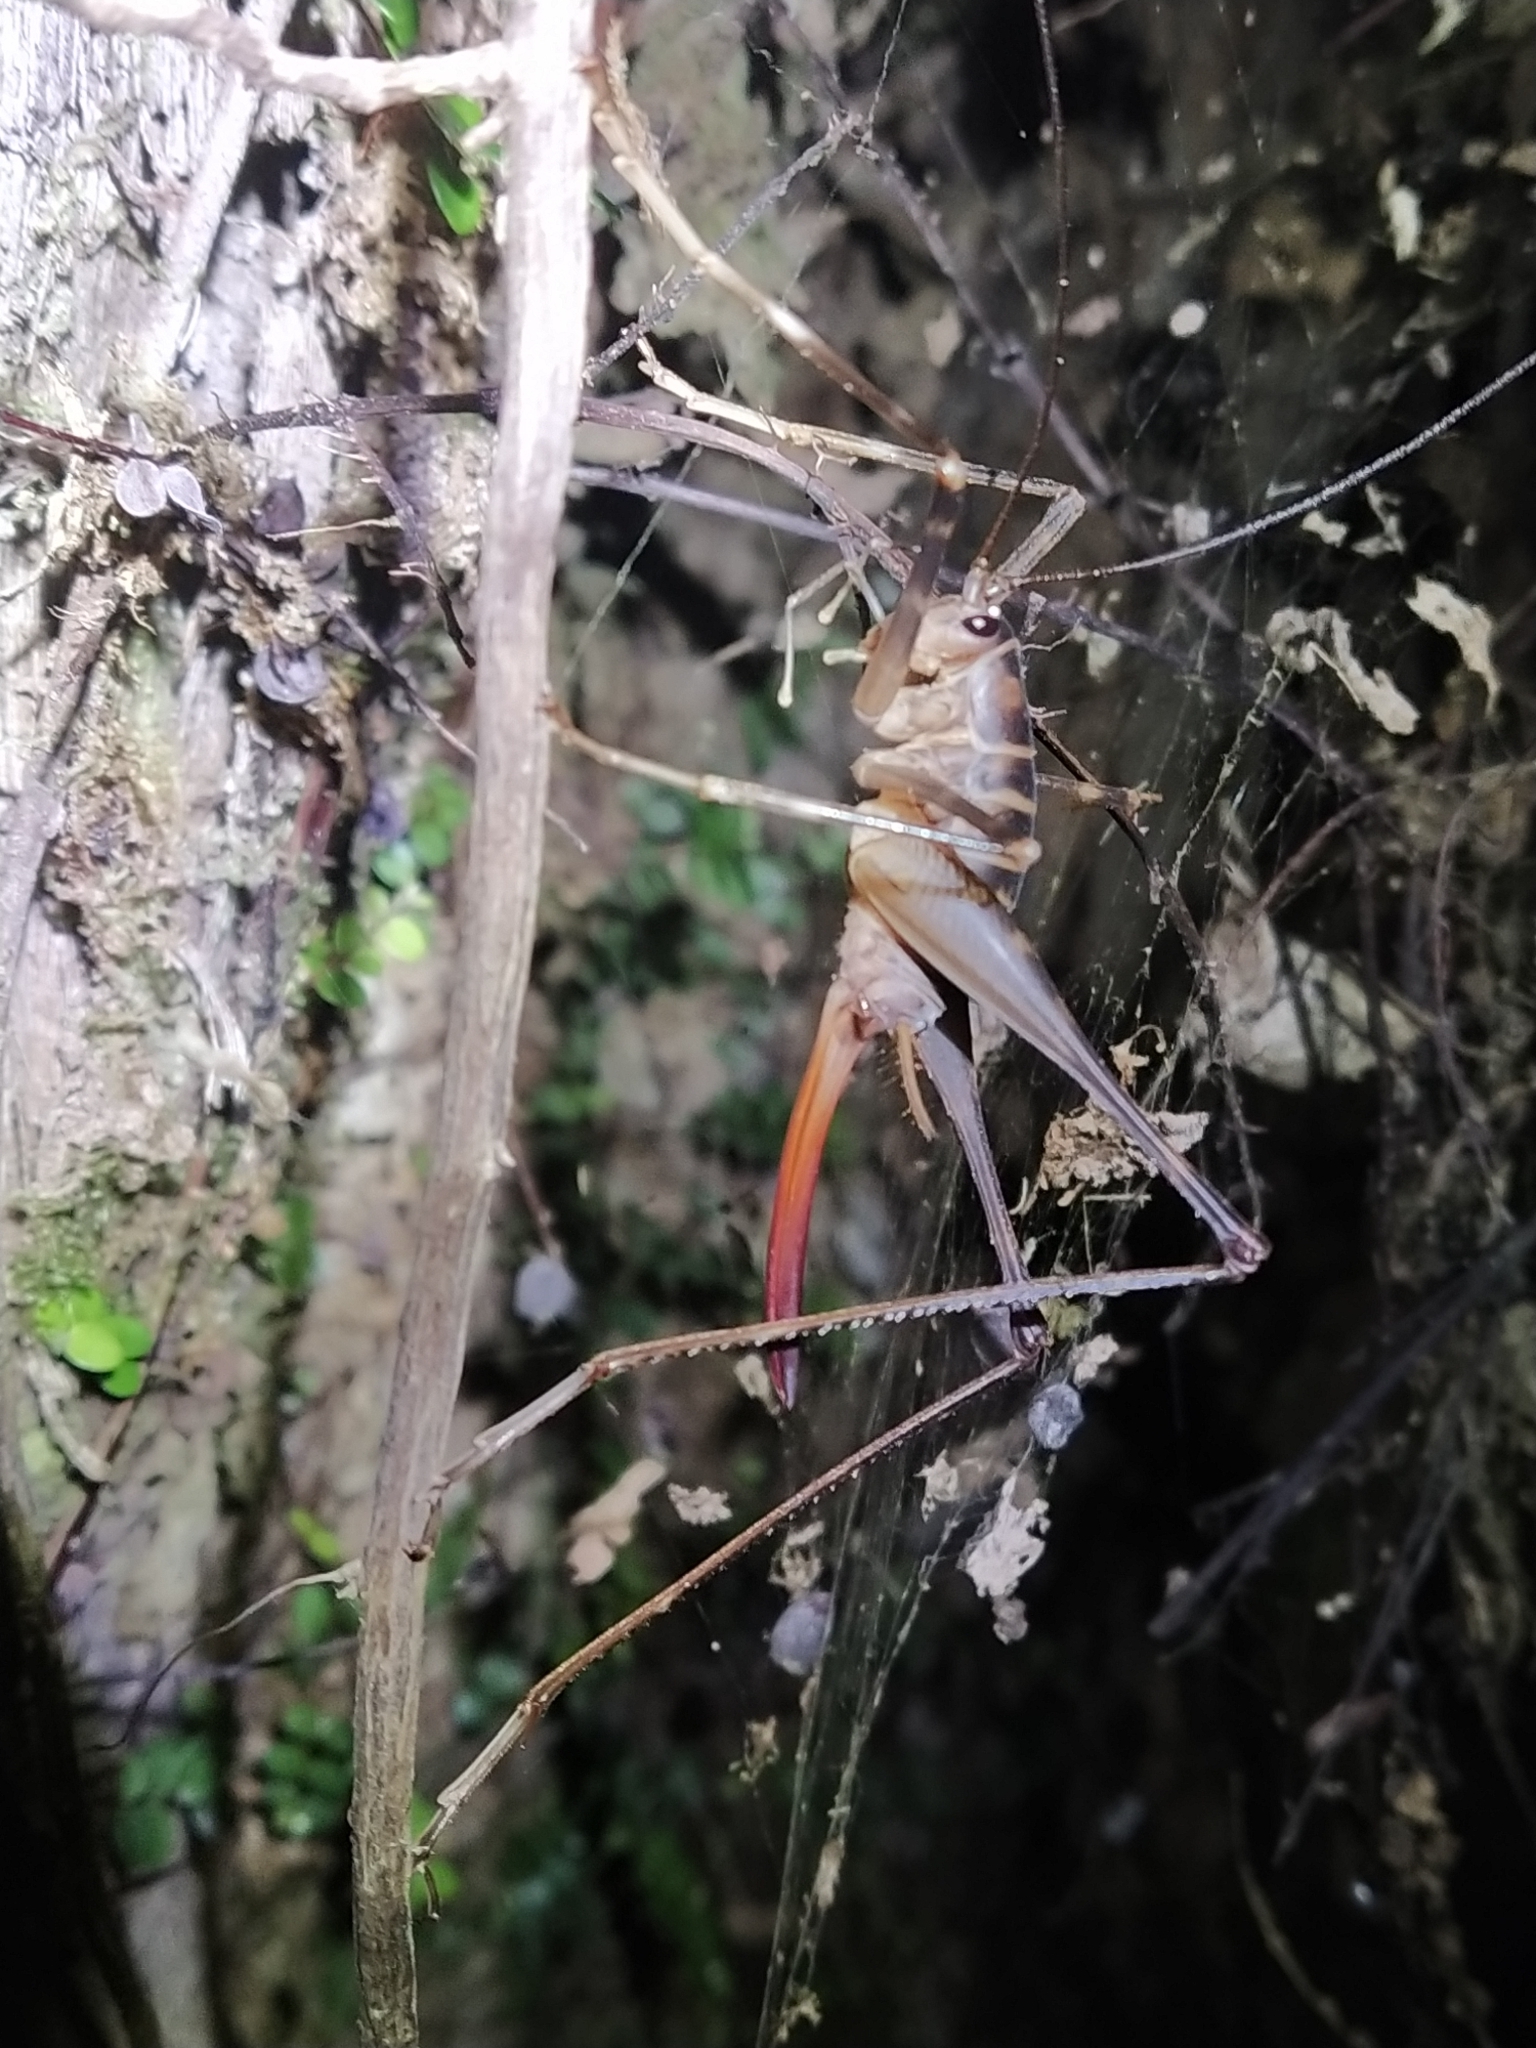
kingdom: Animalia
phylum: Arthropoda
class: Insecta
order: Orthoptera
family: Rhaphidophoridae
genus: Pachyrhamma
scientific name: Pachyrhamma acanthocera
